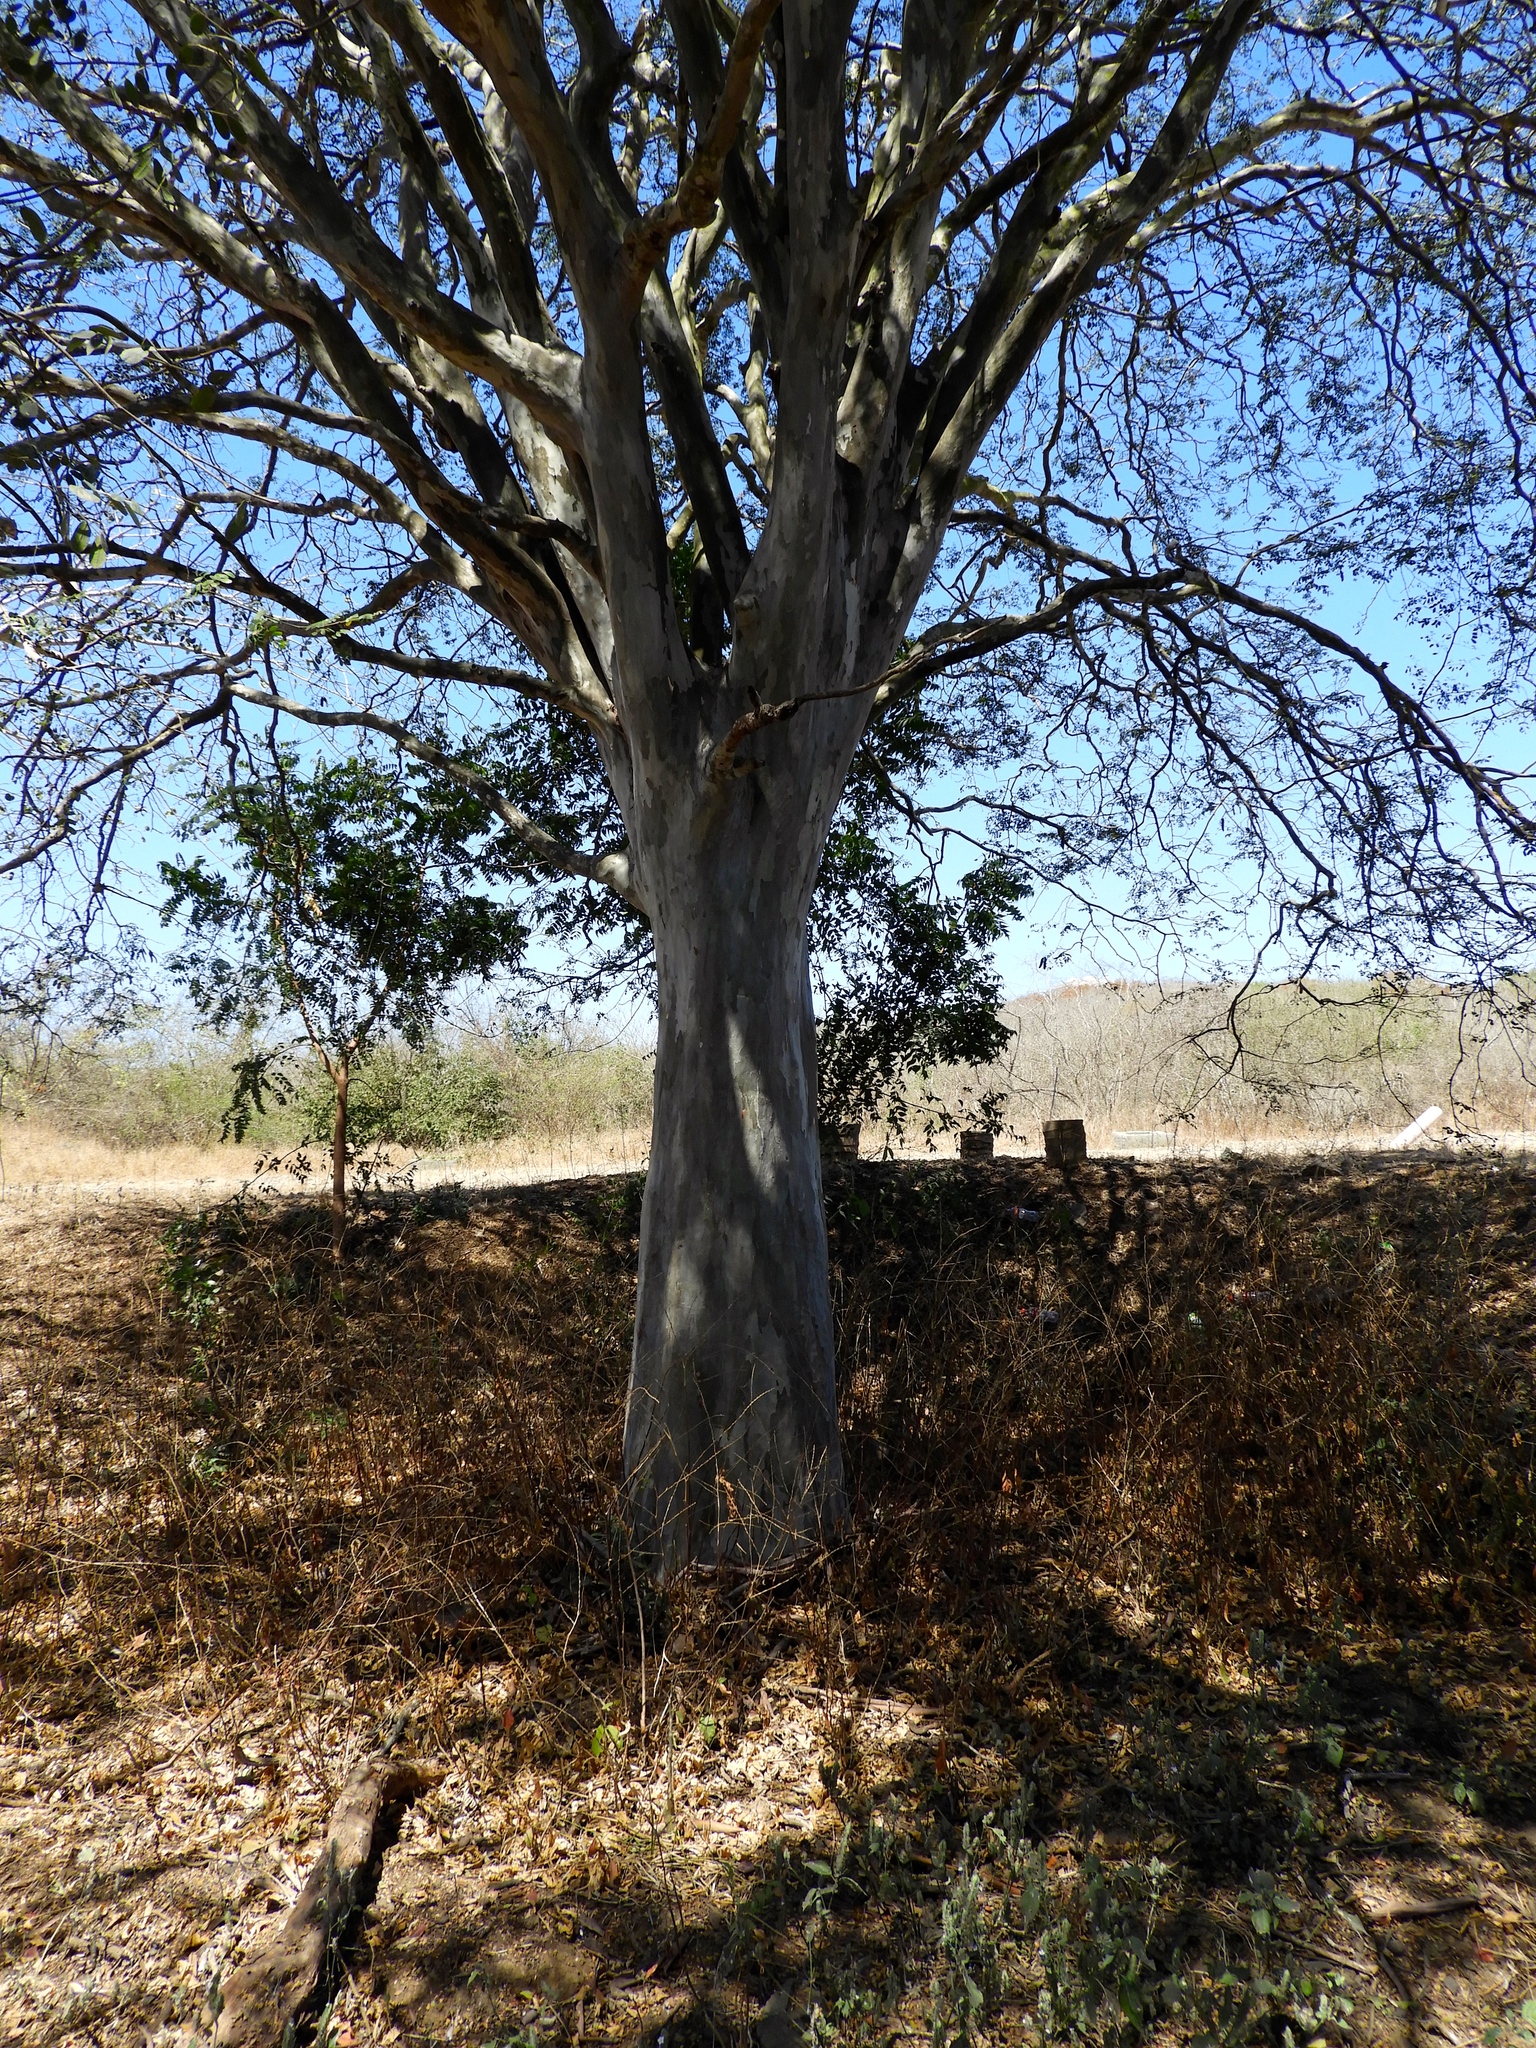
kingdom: Plantae
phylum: Tracheophyta
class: Magnoliopsida
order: Fabales
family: Fabaceae
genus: Libidibia
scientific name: Libidibia sclerocarpa
